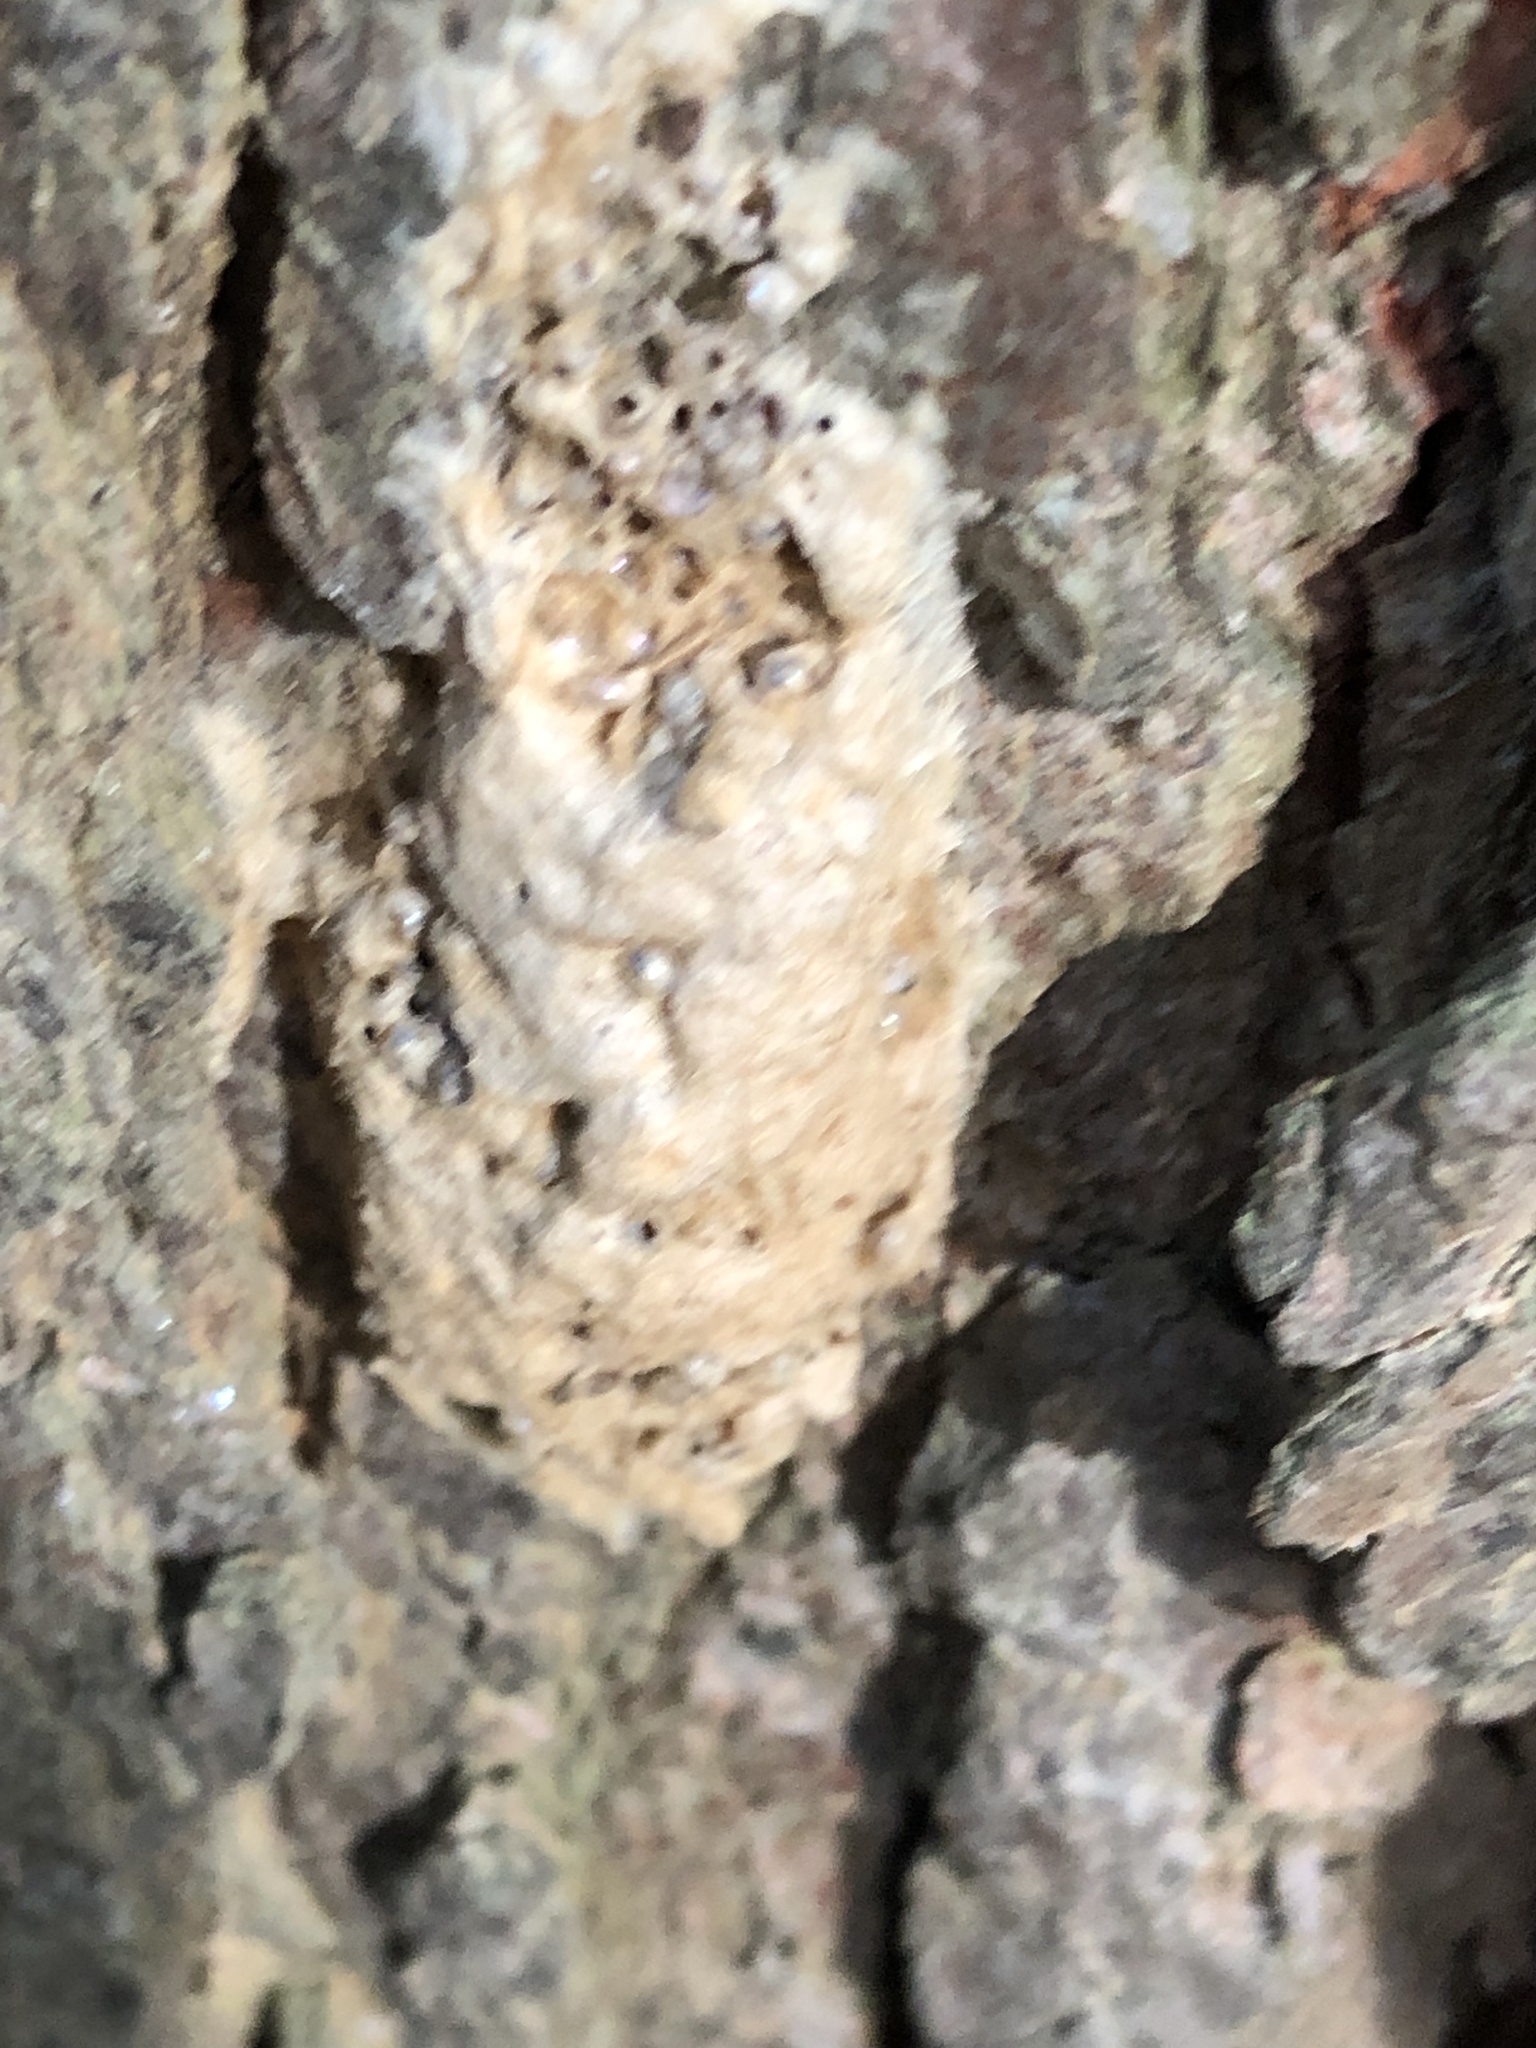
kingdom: Animalia
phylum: Arthropoda
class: Insecta
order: Lepidoptera
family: Erebidae
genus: Lymantria
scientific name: Lymantria dispar
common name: Gypsy moth
